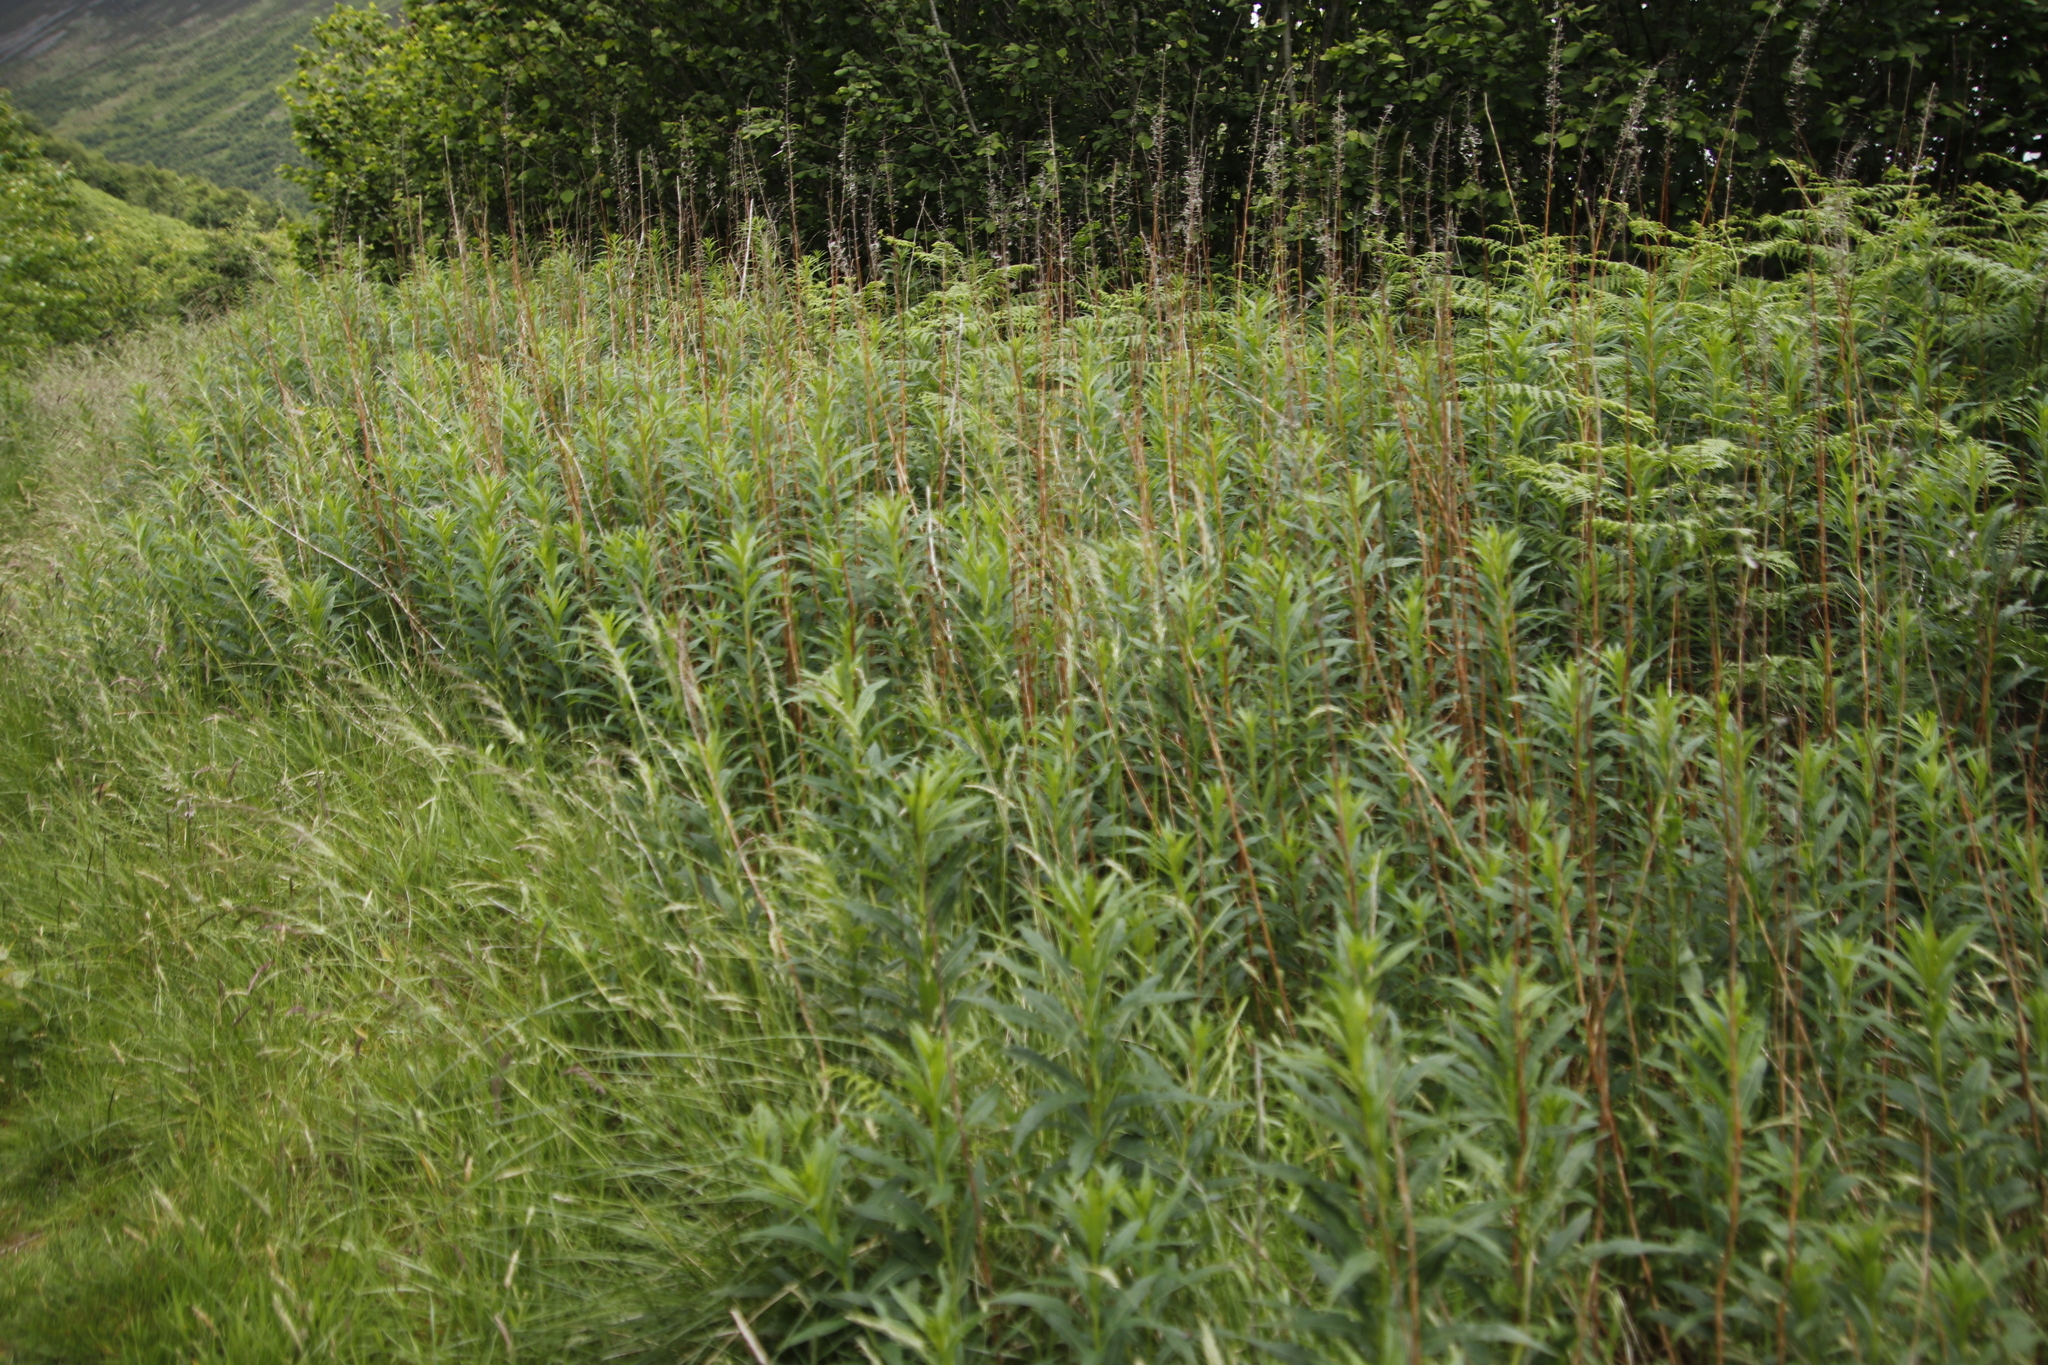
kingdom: Plantae
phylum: Tracheophyta
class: Magnoliopsida
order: Myrtales
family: Onagraceae
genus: Chamaenerion
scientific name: Chamaenerion angustifolium
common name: Fireweed
